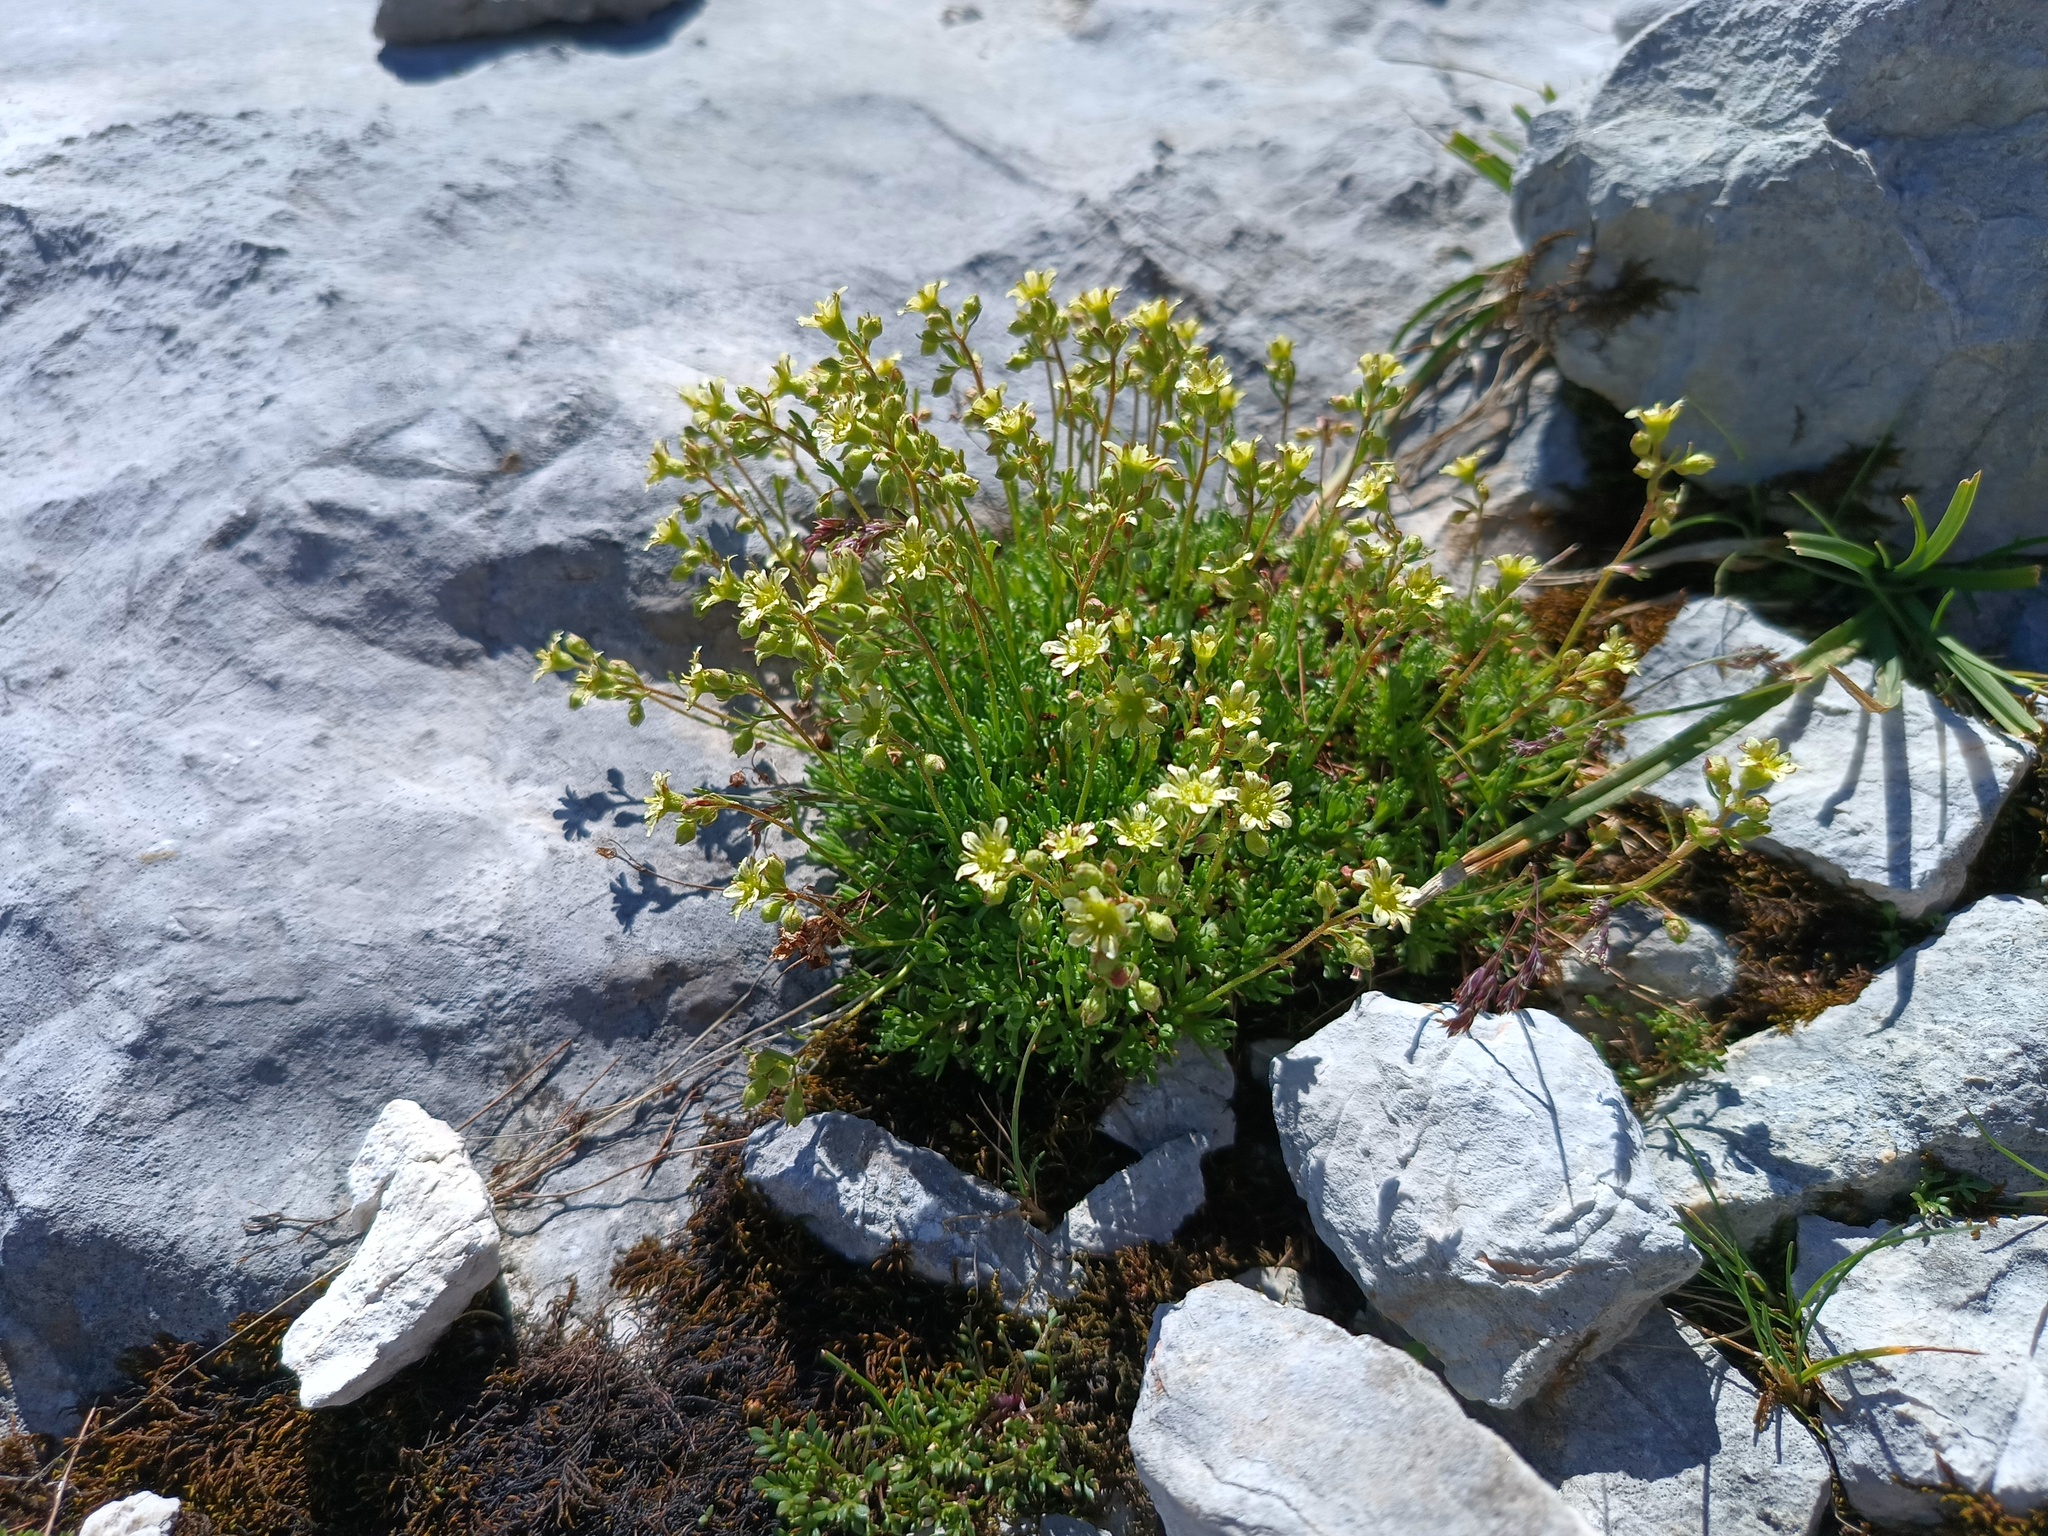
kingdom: Plantae
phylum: Tracheophyta
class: Magnoliopsida
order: Saxifragales
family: Saxifragaceae
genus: Saxifraga
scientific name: Saxifraga moschata
